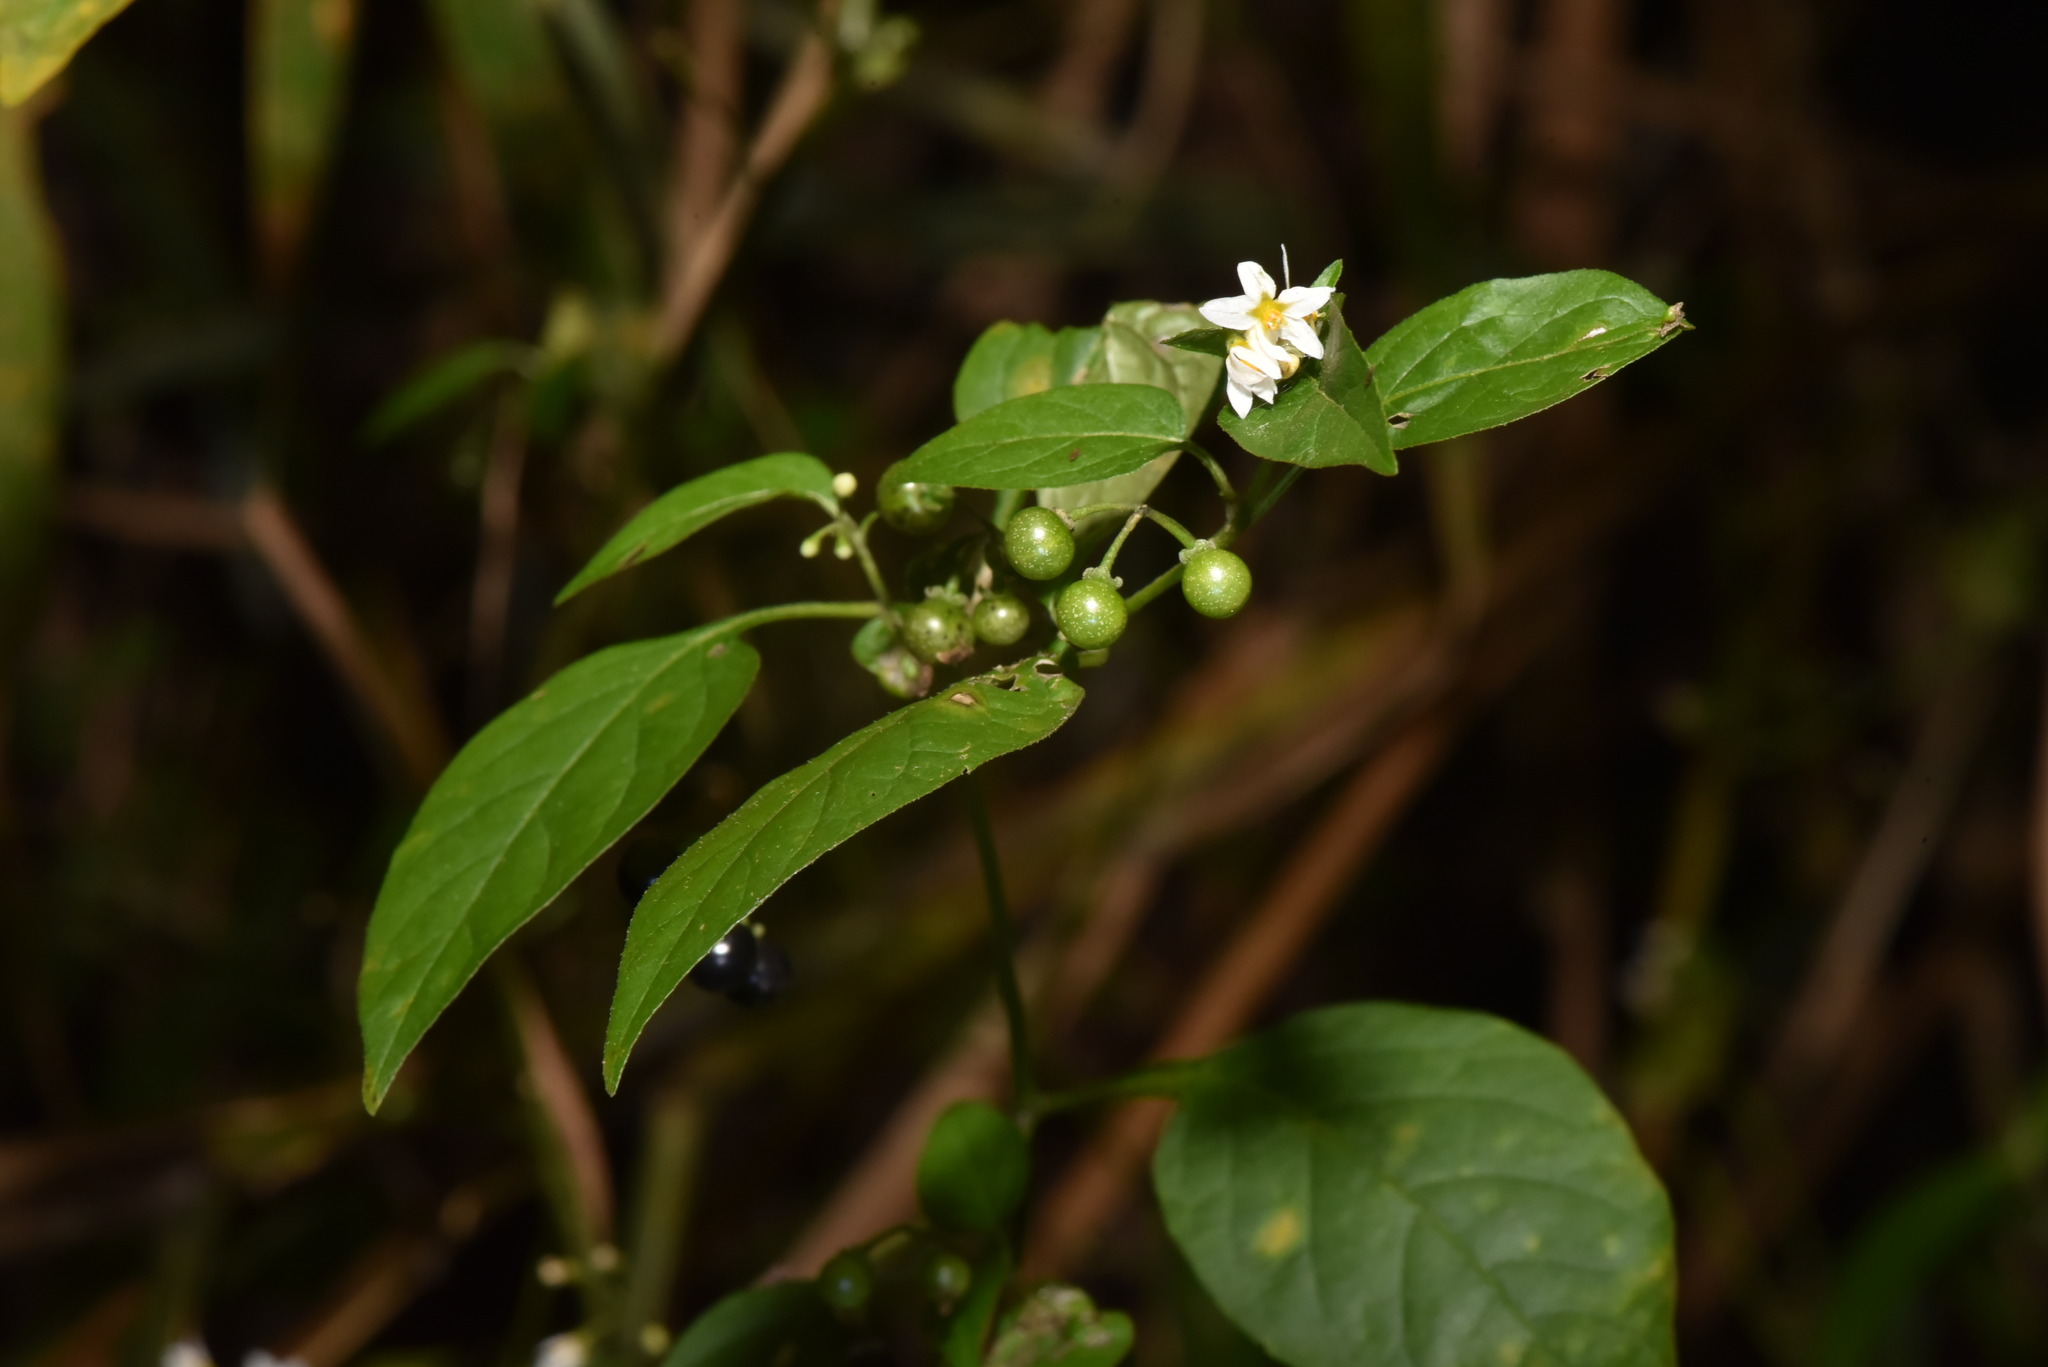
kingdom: Plantae
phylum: Tracheophyta
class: Magnoliopsida
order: Solanales
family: Solanaceae
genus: Solanum
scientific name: Solanum americanum
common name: American black nightshade
